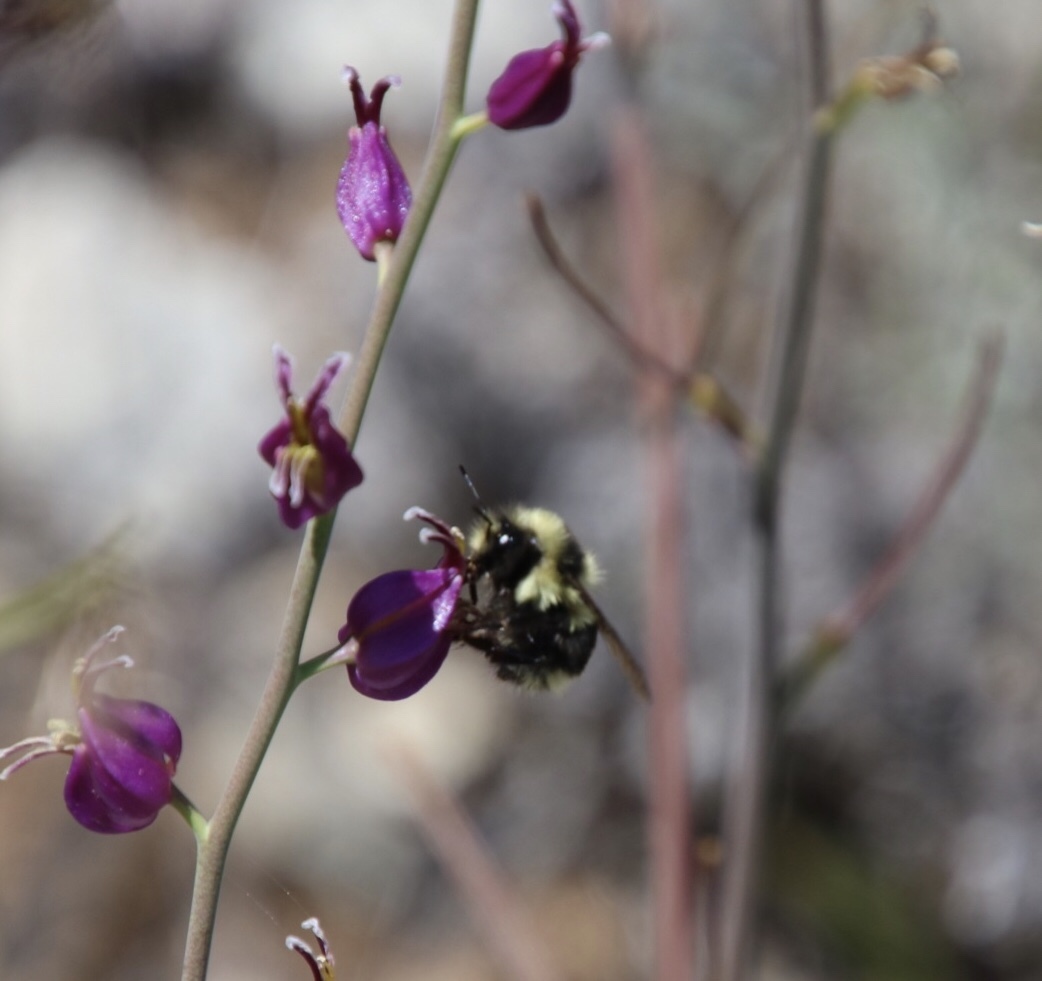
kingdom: Animalia
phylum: Arthropoda
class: Insecta
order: Hymenoptera
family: Apidae
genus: Bombus
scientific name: Bombus melanopygus
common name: Black tail bumble bee
